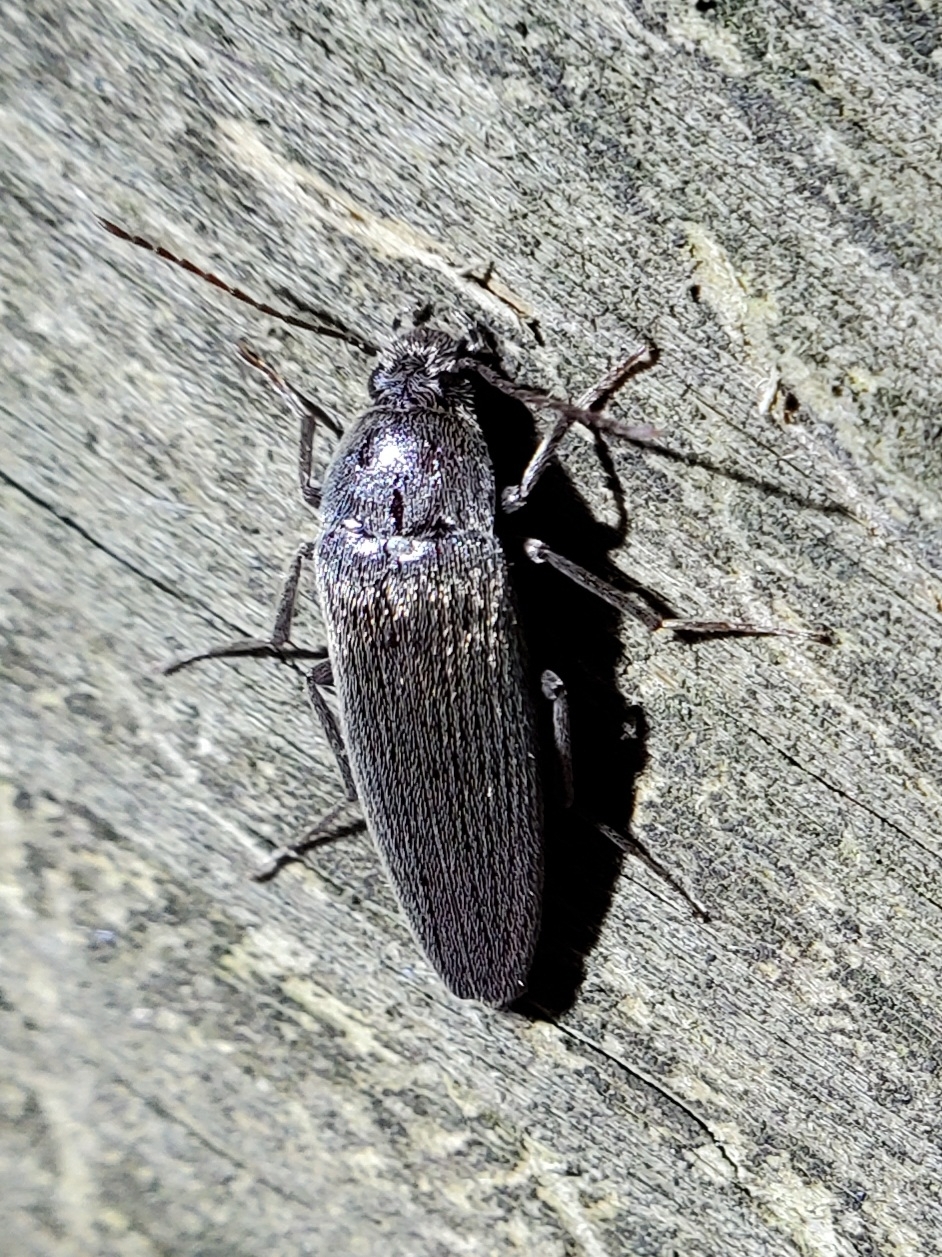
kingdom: Animalia
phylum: Arthropoda
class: Insecta
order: Coleoptera
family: Synchroidae
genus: Synchroa
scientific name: Synchroa punctata
